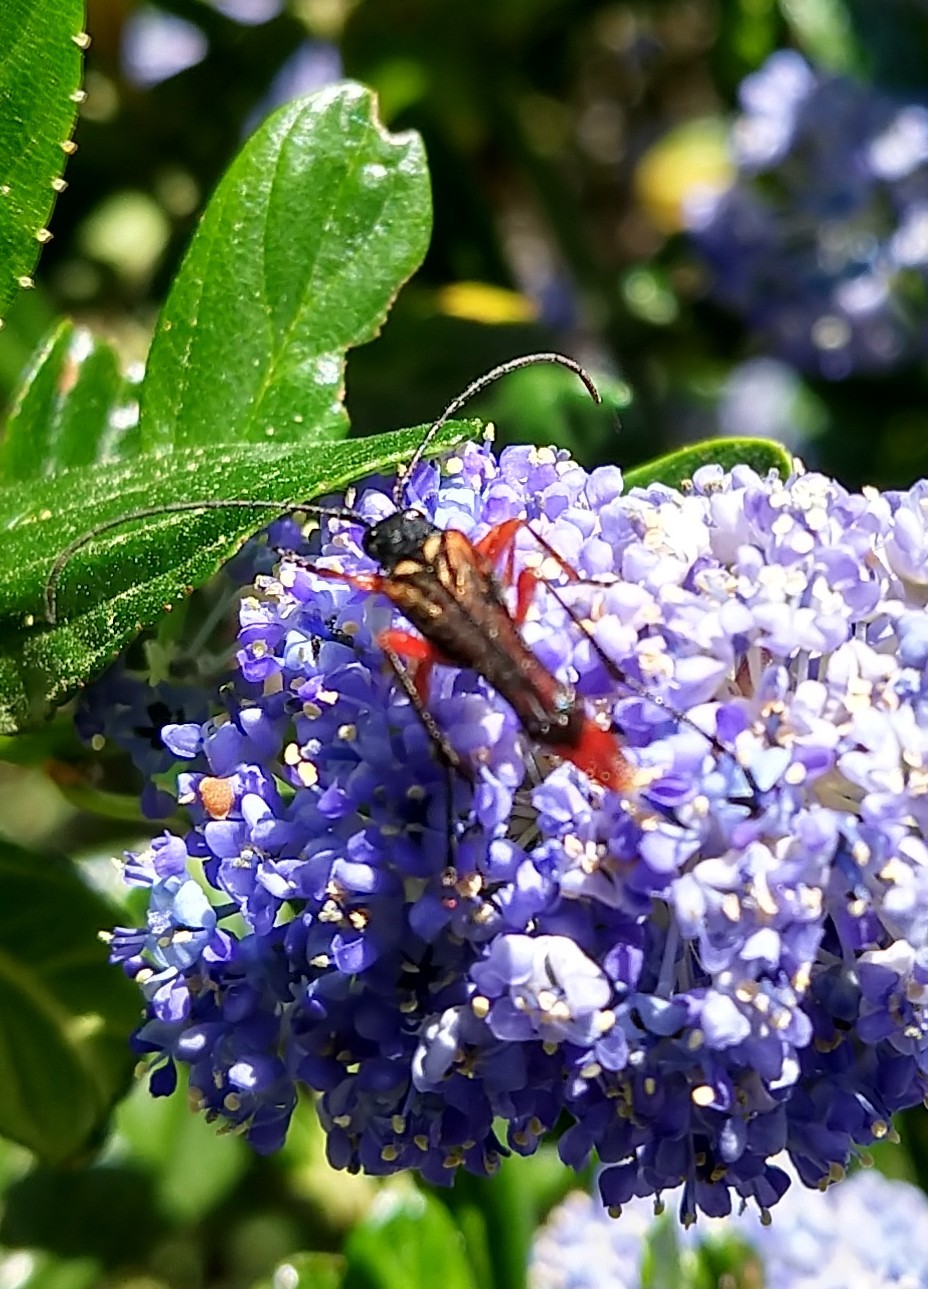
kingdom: Animalia
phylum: Arthropoda
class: Insecta
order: Coleoptera
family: Cerambycidae
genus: Neobellamira
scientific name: Neobellamira delicata
